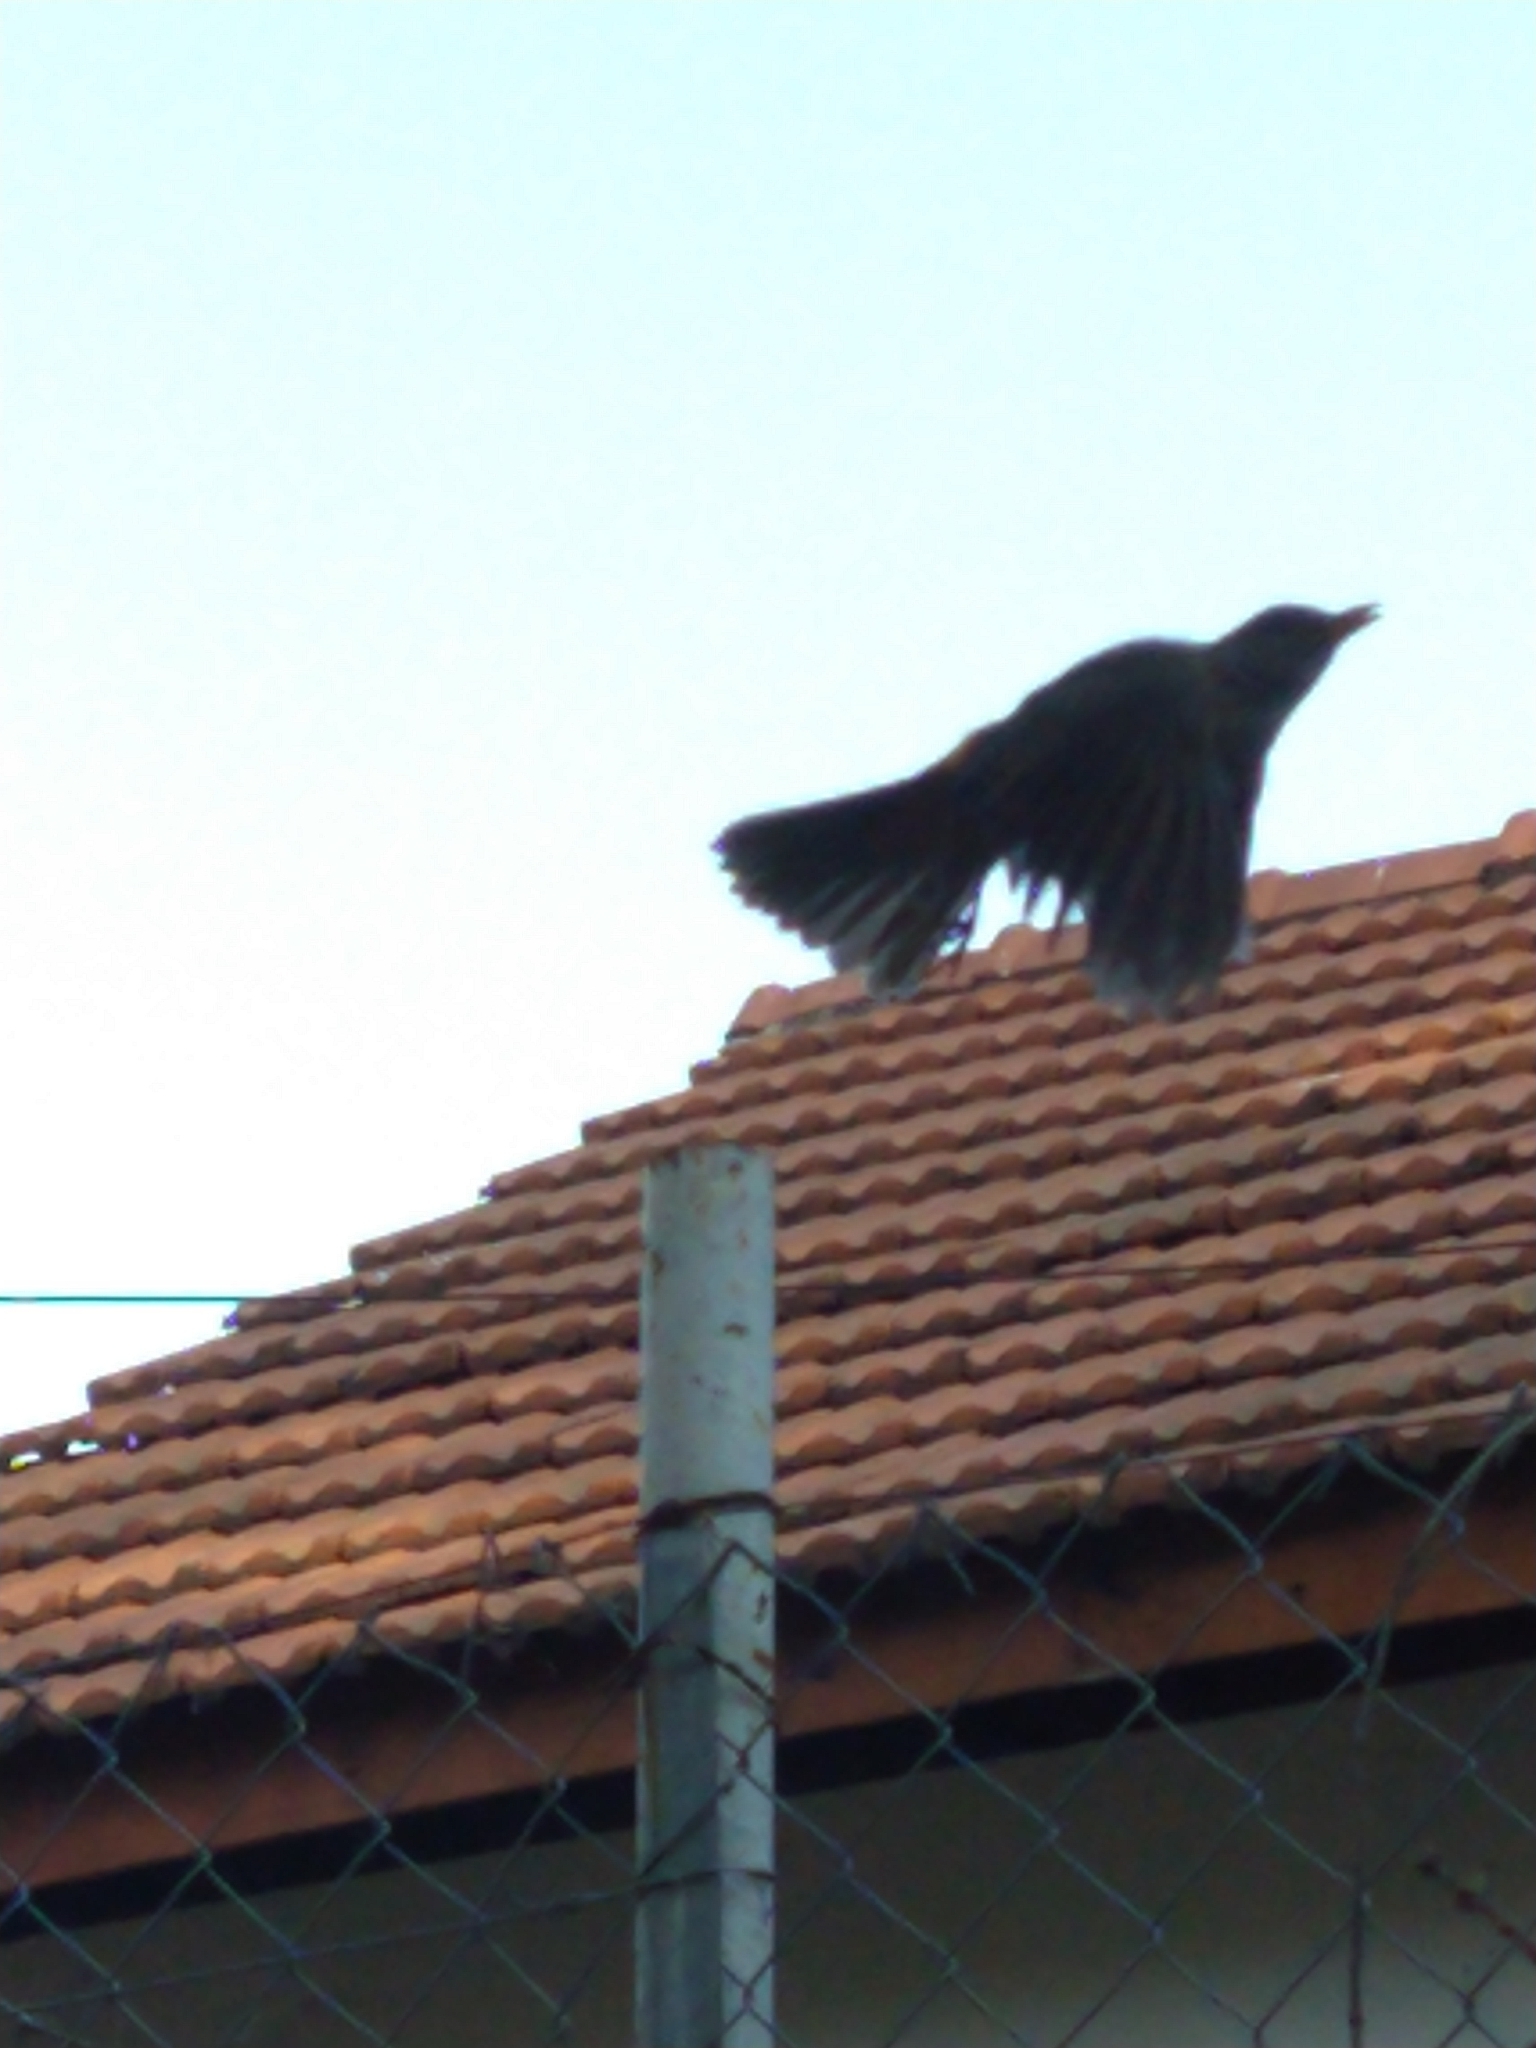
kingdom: Animalia
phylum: Chordata
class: Aves
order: Passeriformes
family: Turdidae
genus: Turdus
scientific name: Turdus rufiventris
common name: Rufous-bellied thrush
